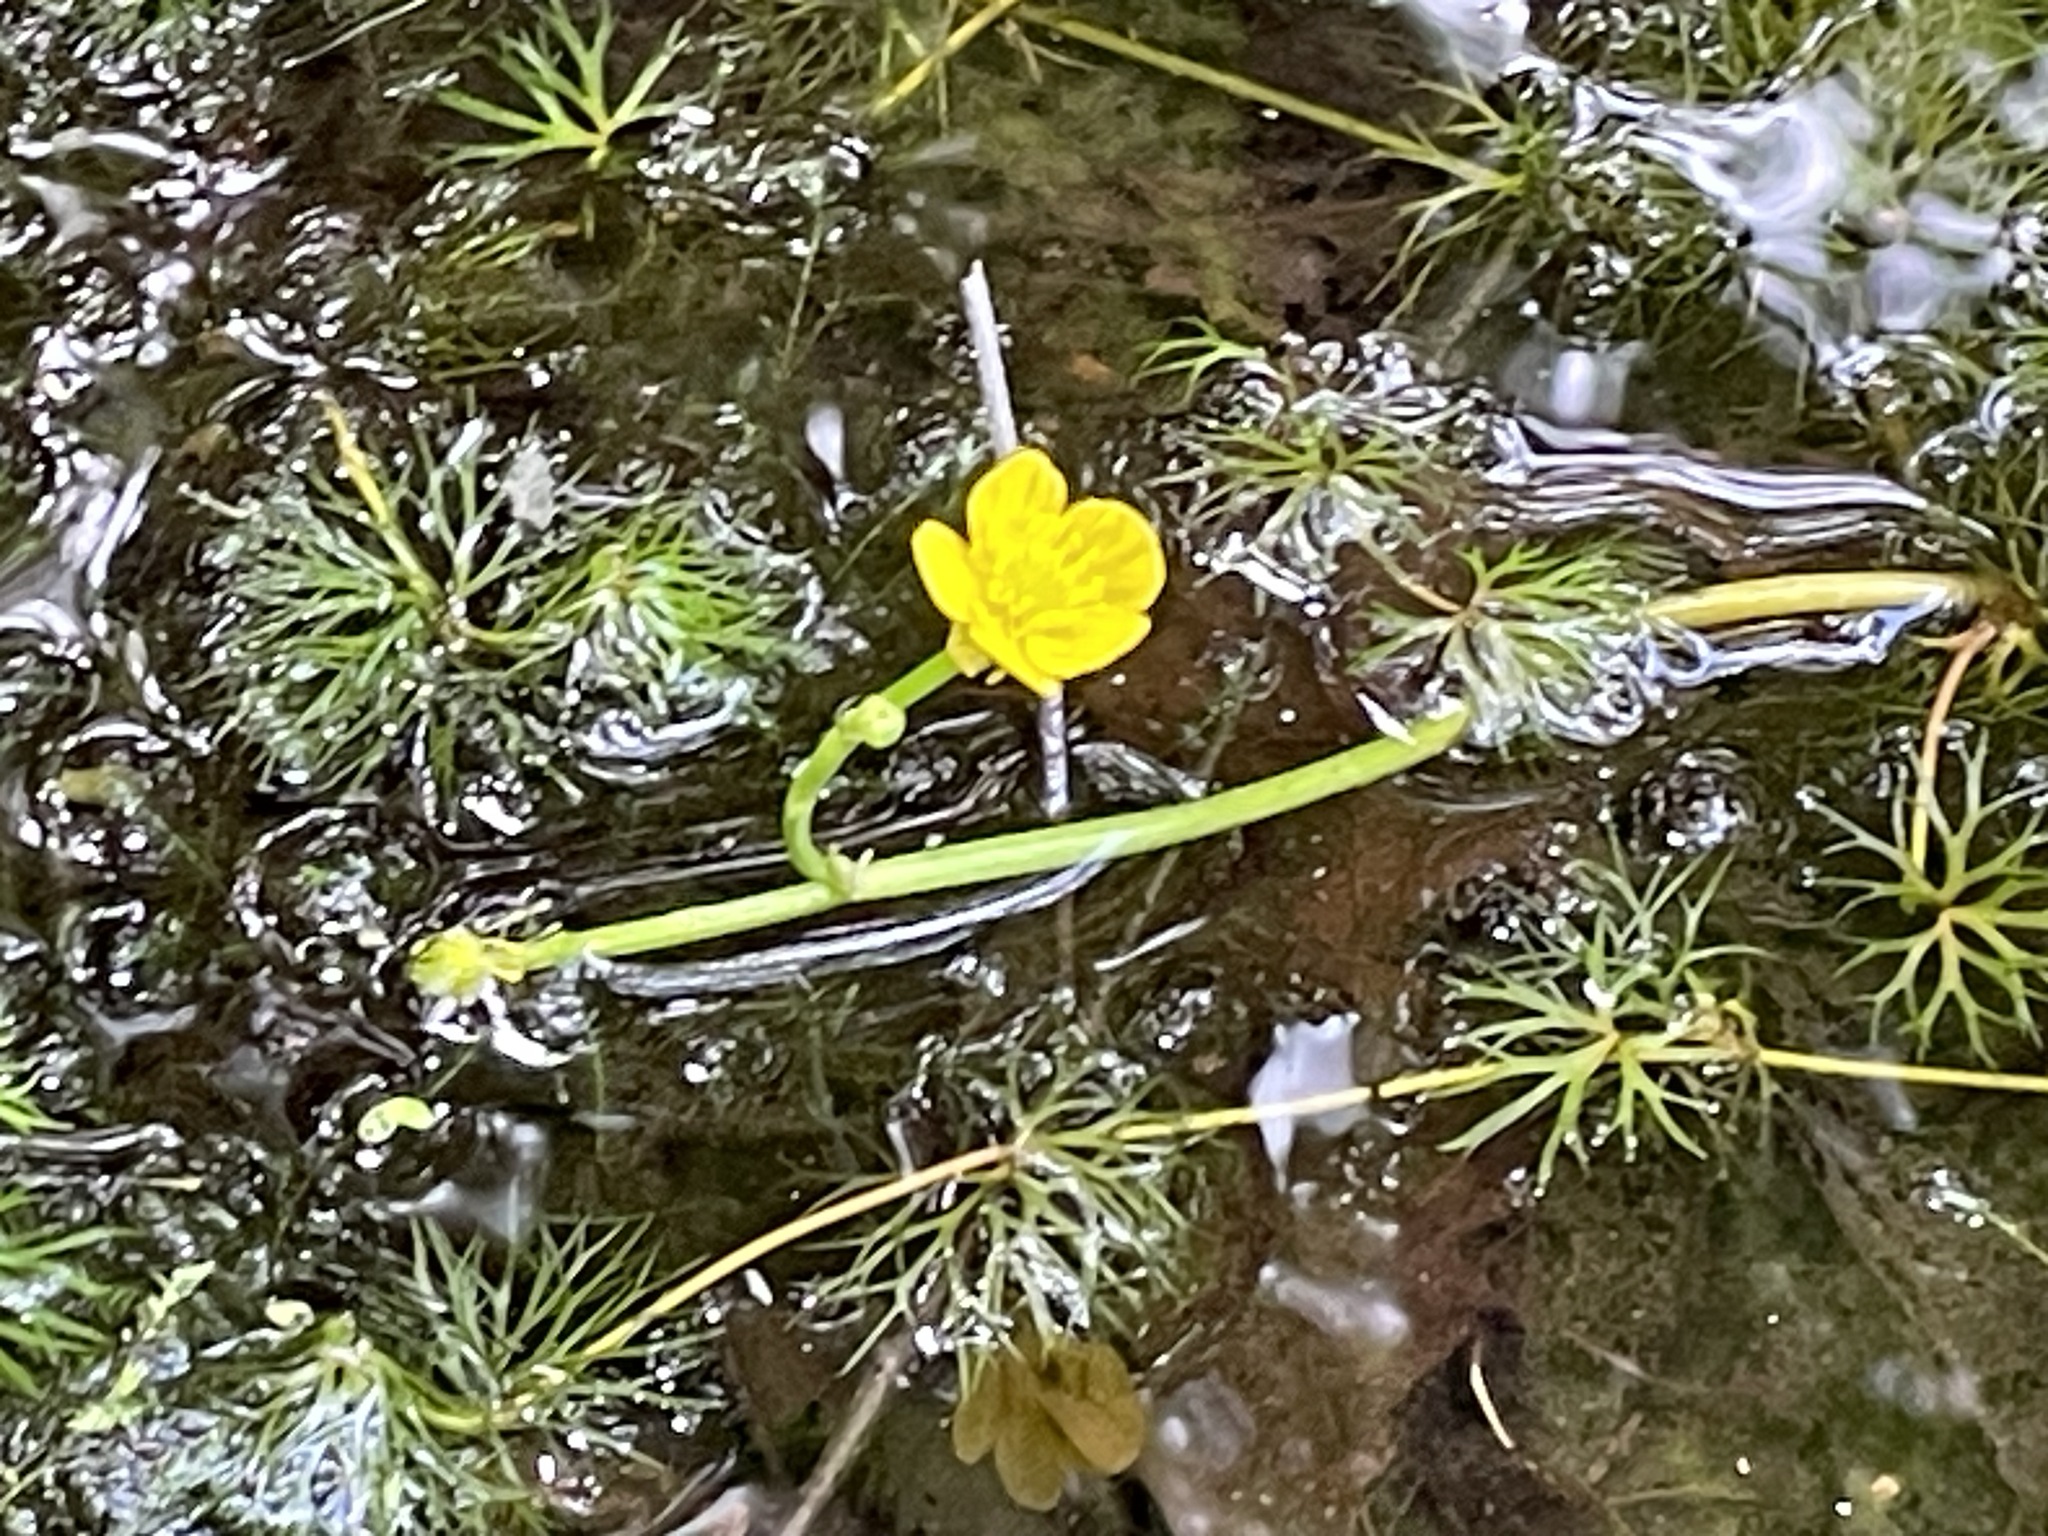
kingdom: Plantae
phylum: Tracheophyta
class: Magnoliopsida
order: Ranunculales
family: Ranunculaceae
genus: Ranunculus
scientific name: Ranunculus flabellaris
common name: Yellow water-crowfoot
